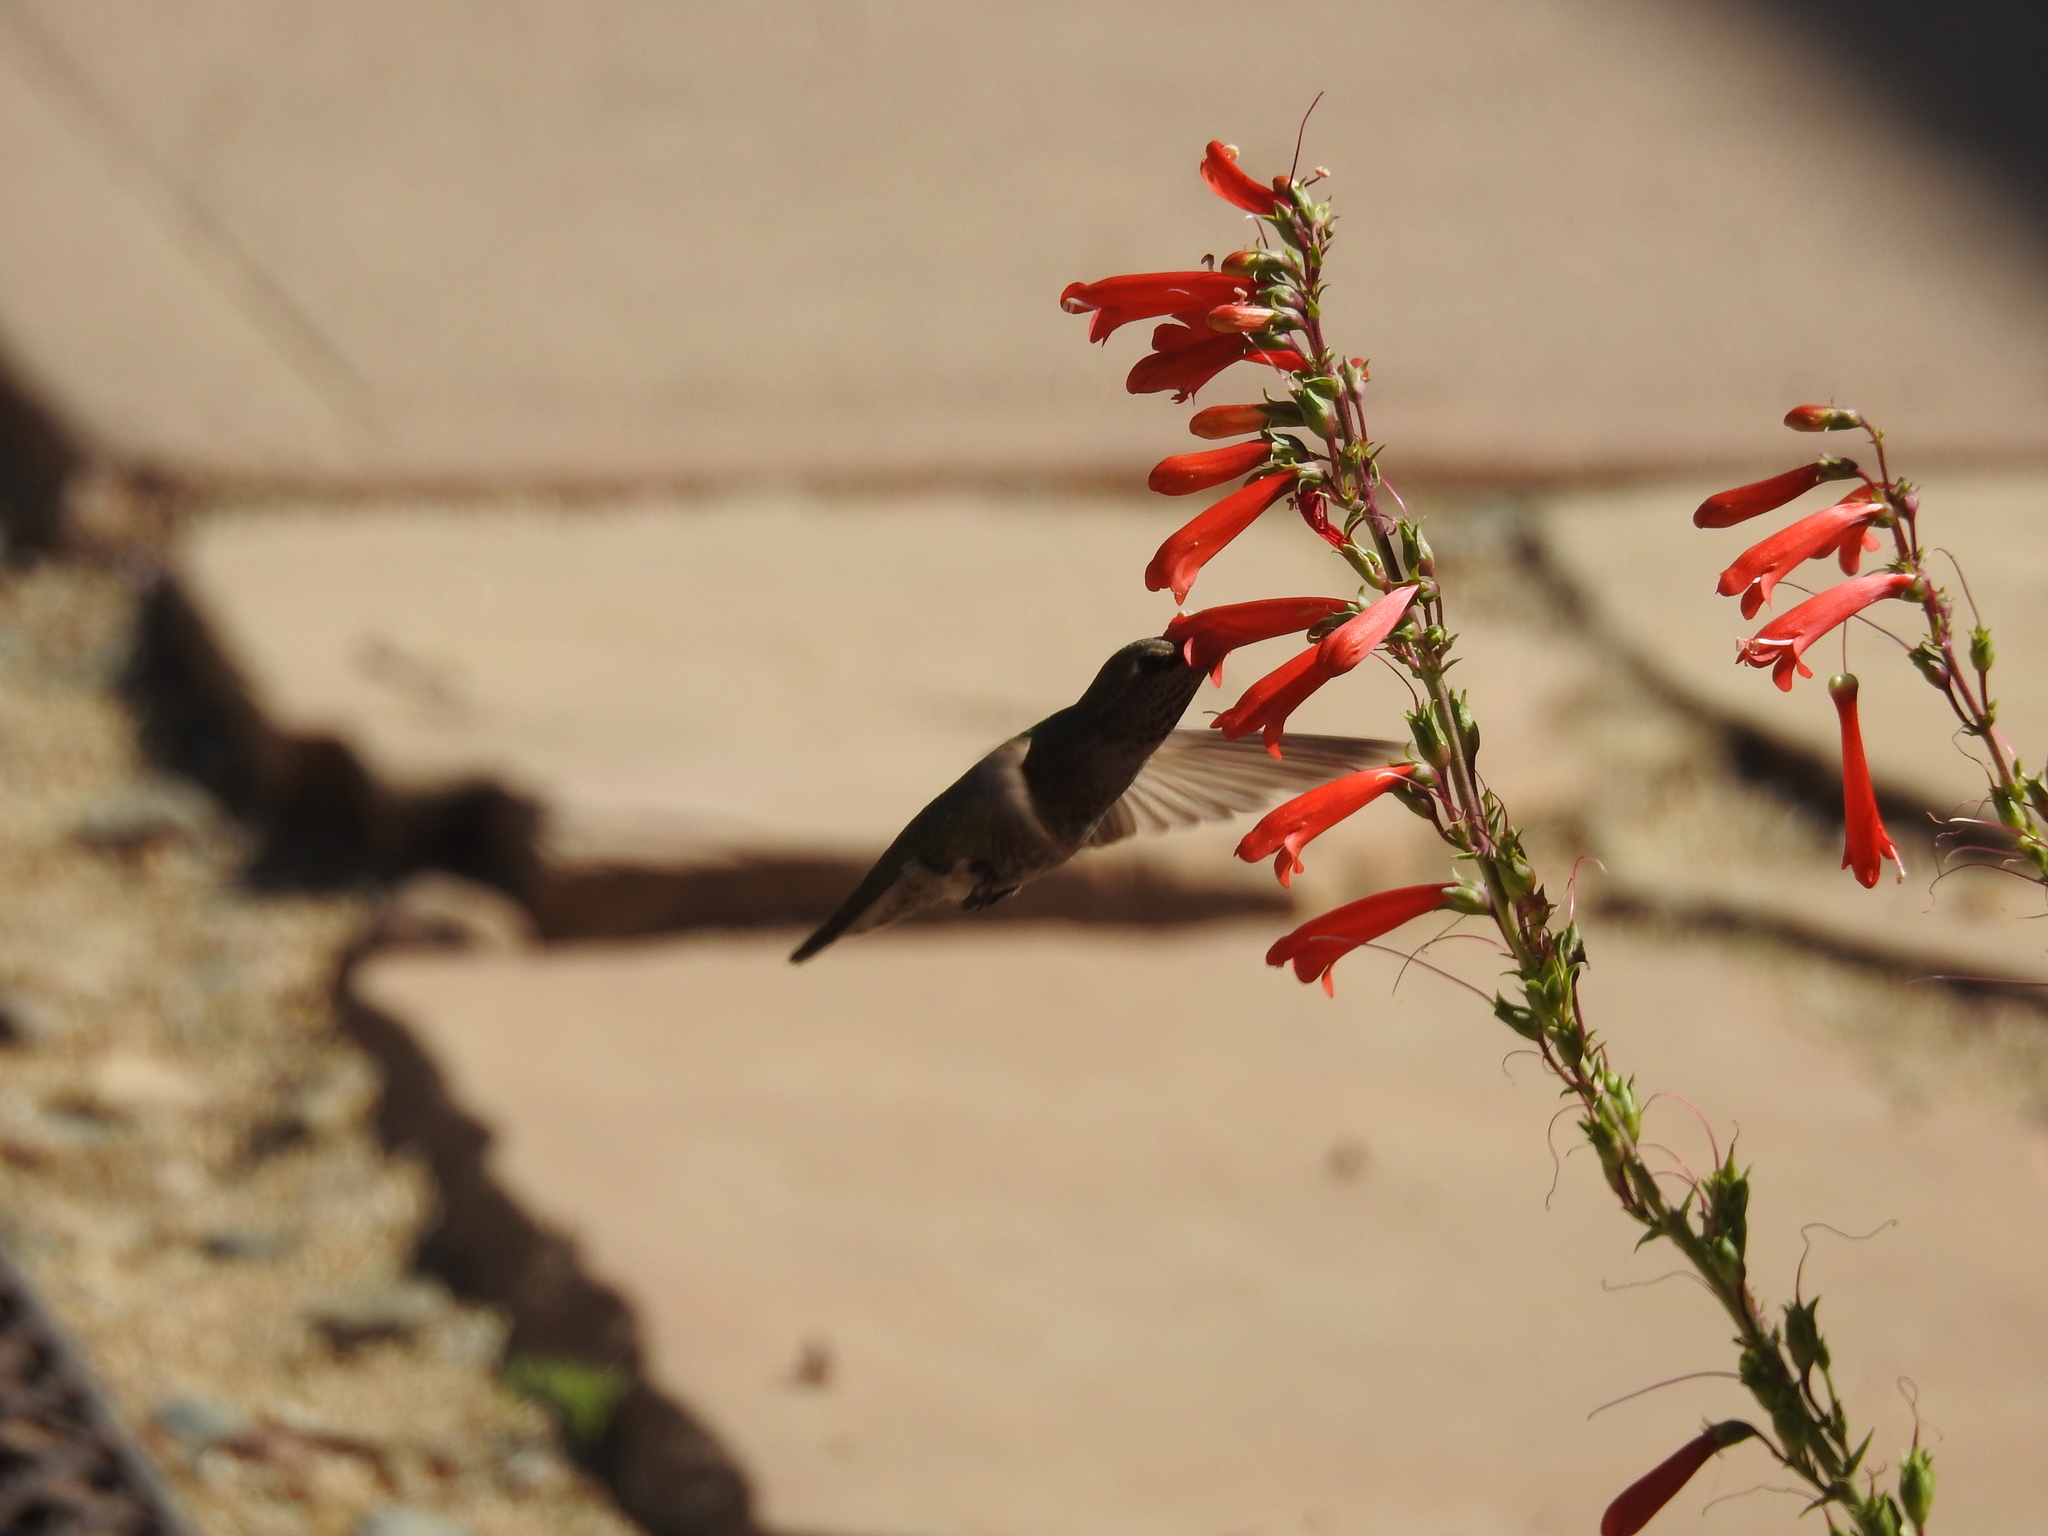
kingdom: Animalia
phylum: Chordata
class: Aves
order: Apodiformes
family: Trochilidae
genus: Calypte
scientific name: Calypte anna
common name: Anna's hummingbird
